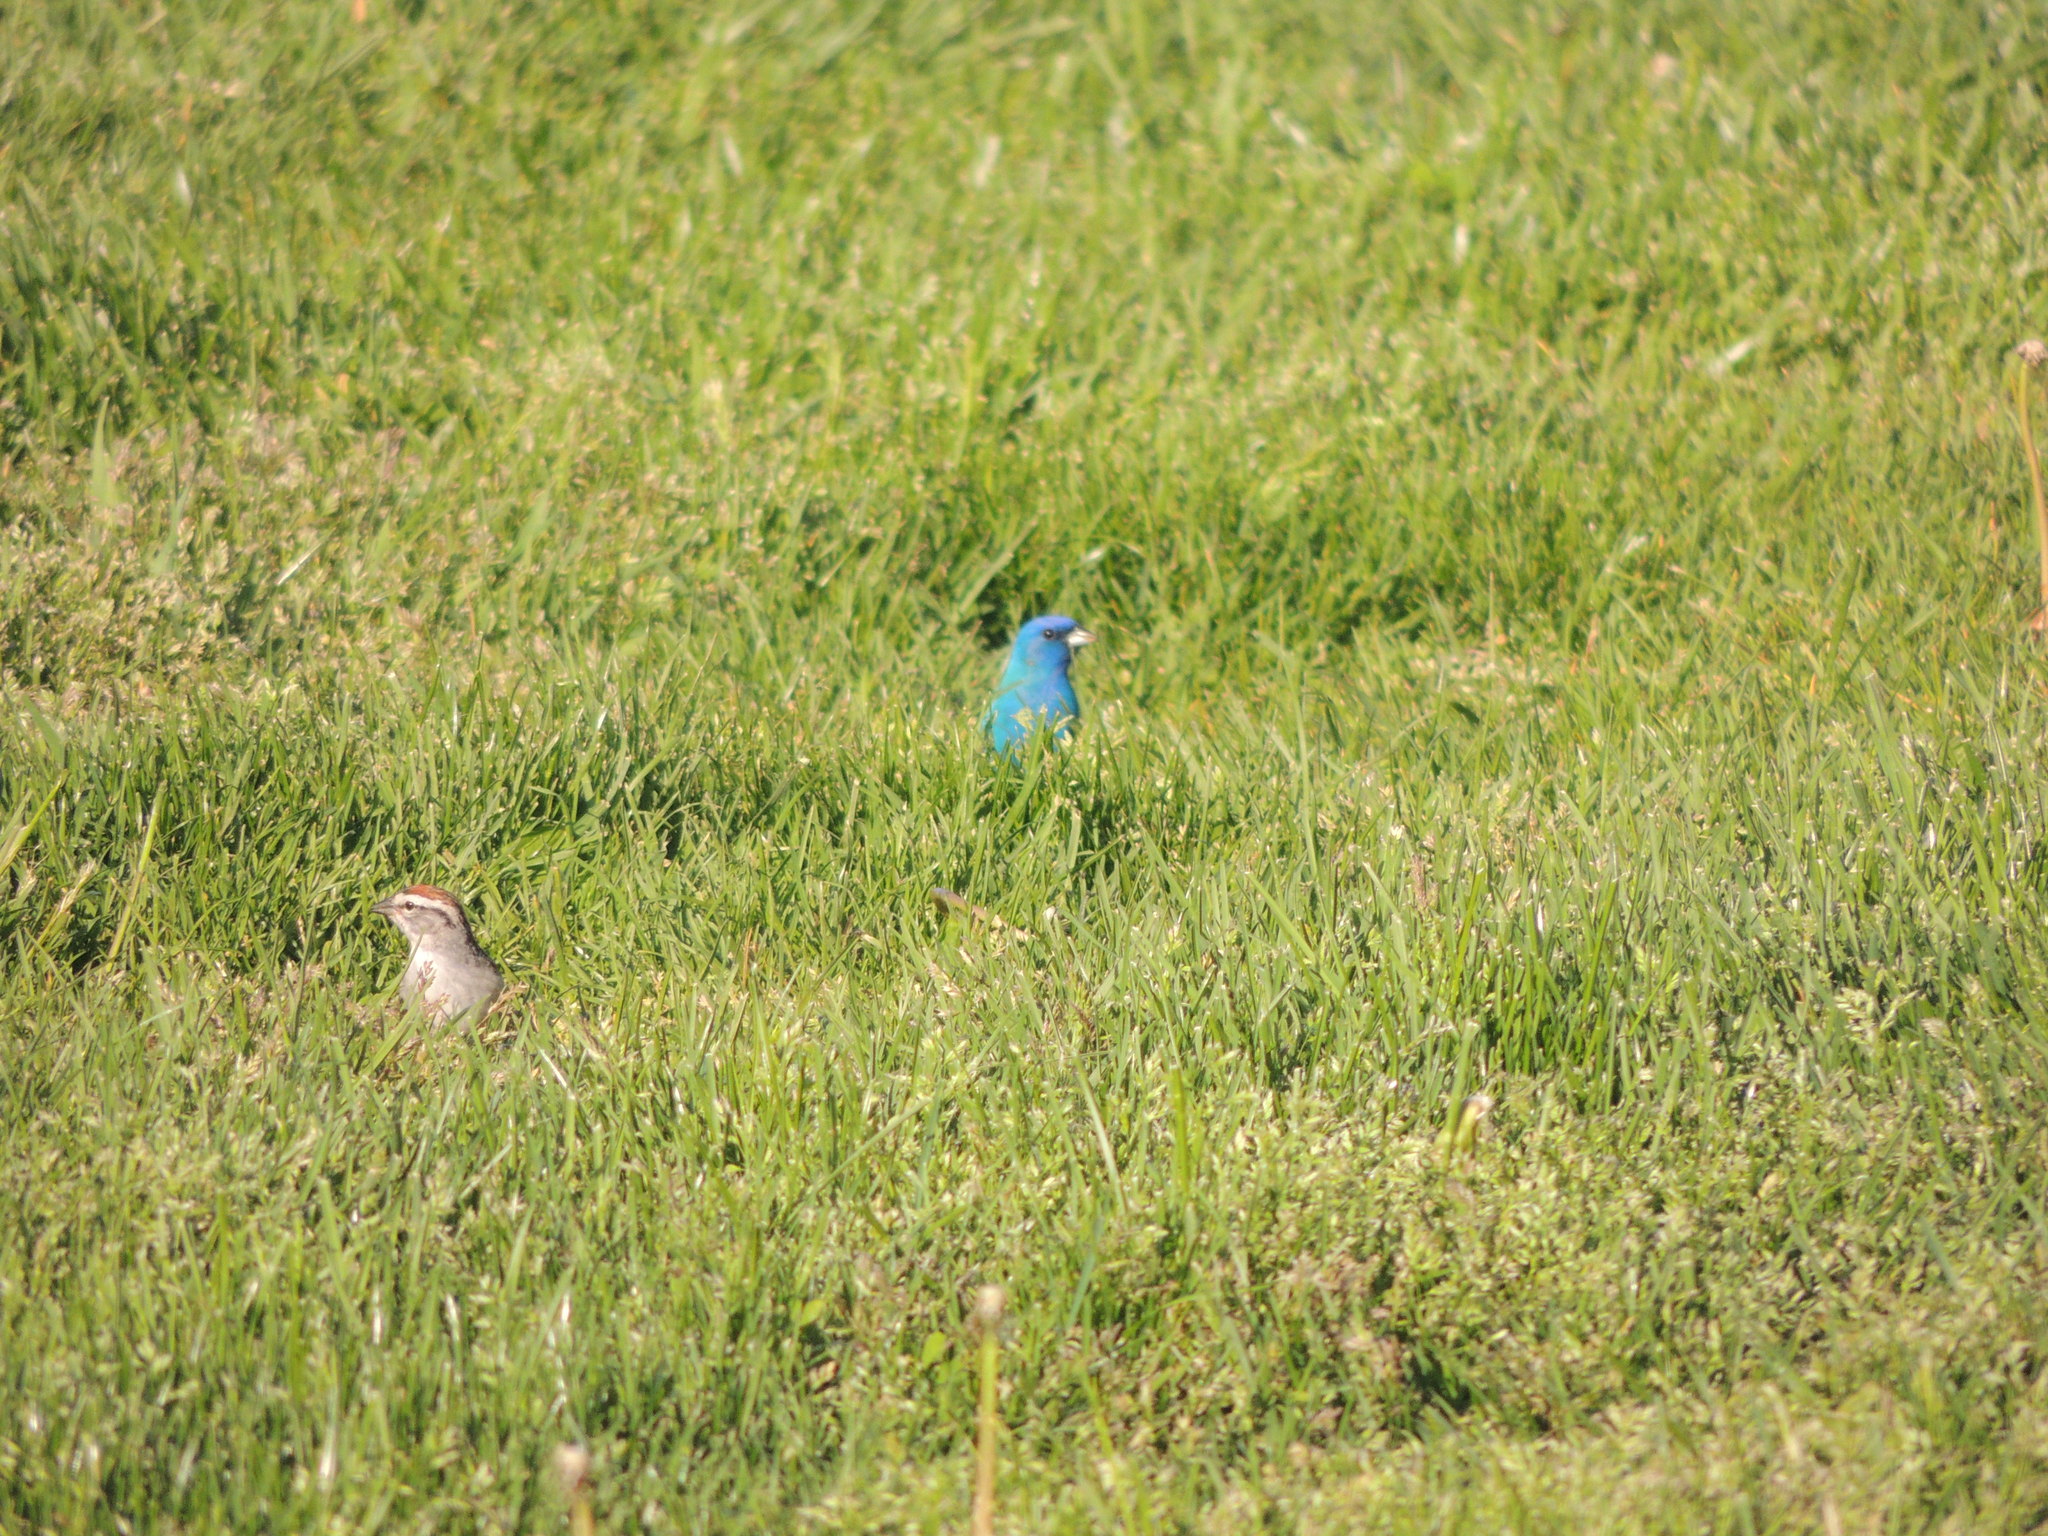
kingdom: Animalia
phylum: Chordata
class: Aves
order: Passeriformes
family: Cardinalidae
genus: Passerina
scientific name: Passerina cyanea
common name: Indigo bunting
